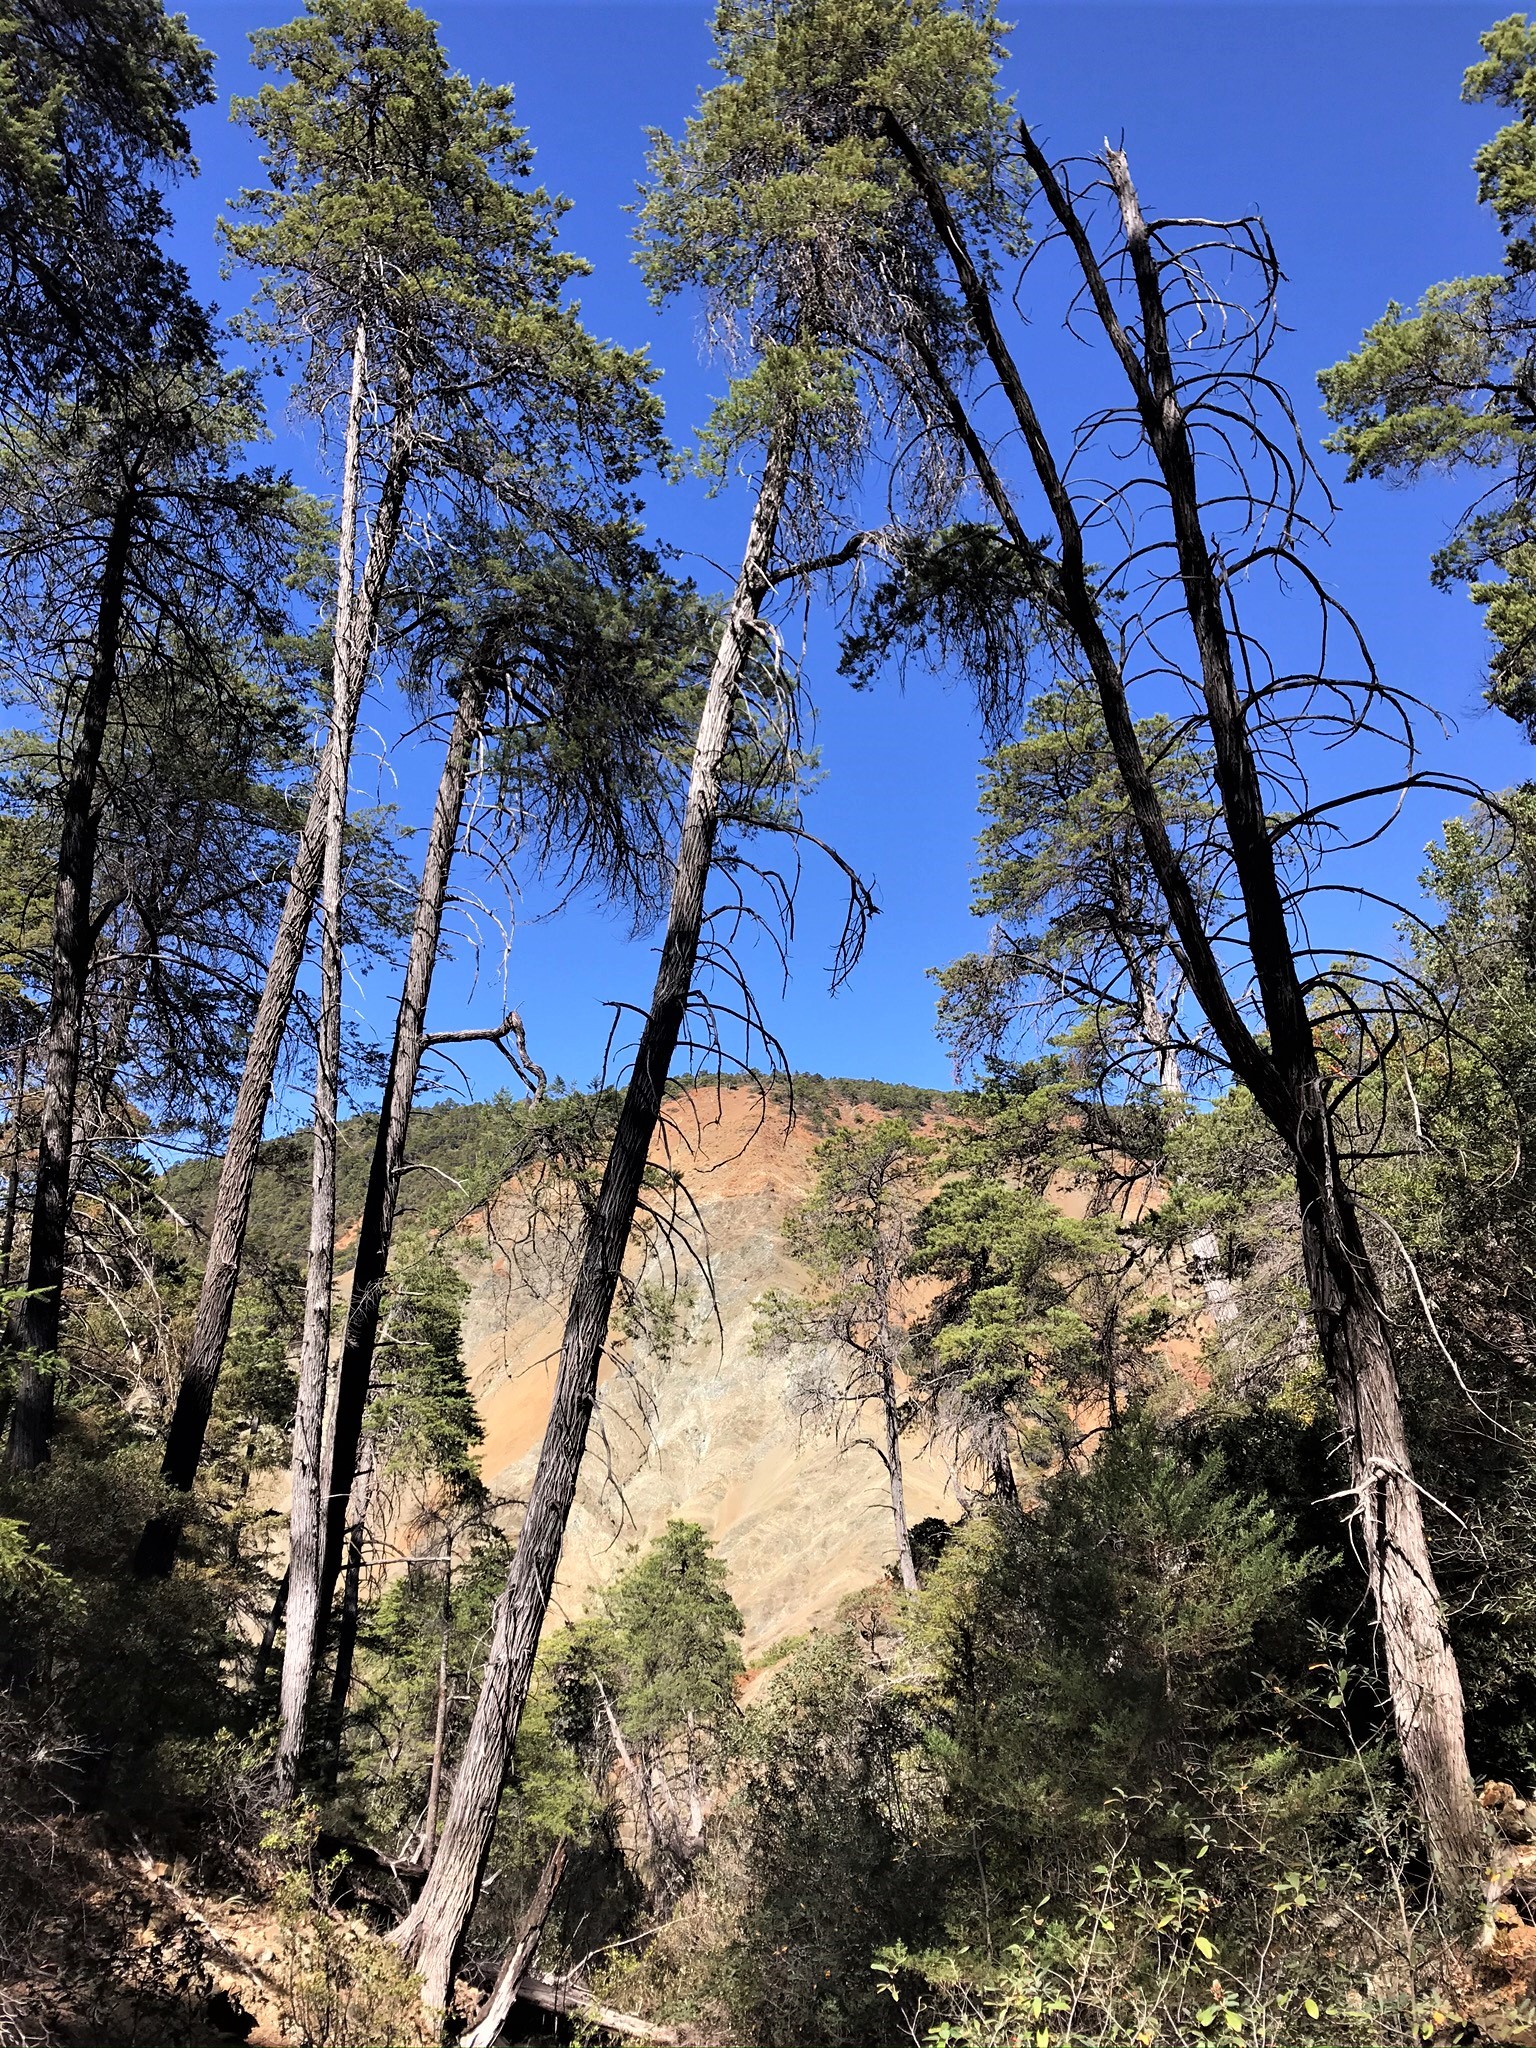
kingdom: Plantae
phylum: Tracheophyta
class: Pinopsida
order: Pinales
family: Cupressaceae
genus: Cupressus
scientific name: Cupressus sargentii
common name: Sargent cypress
